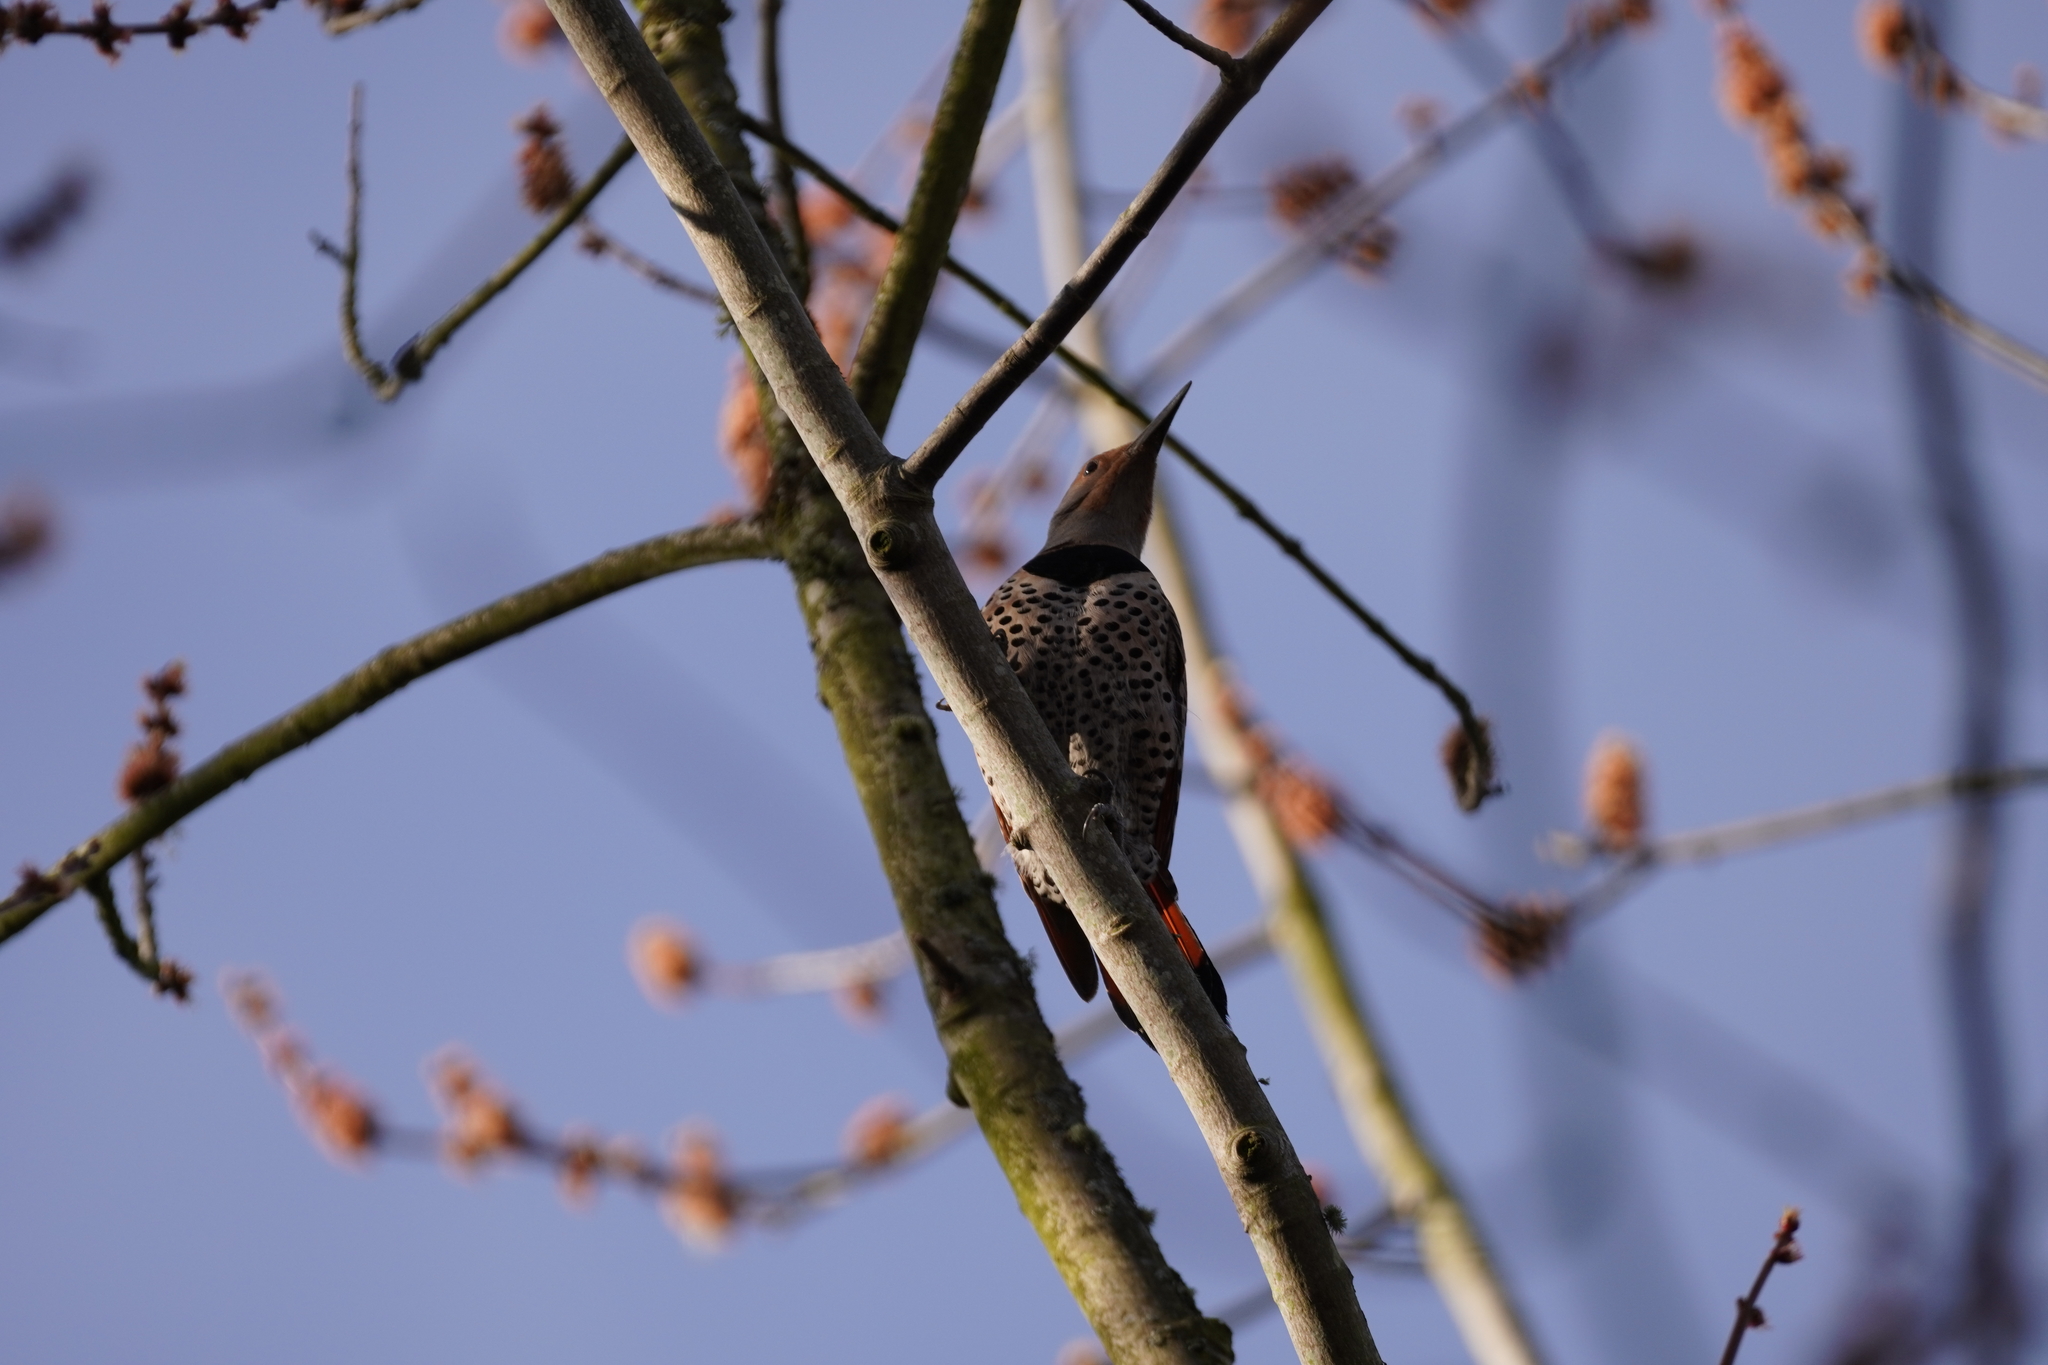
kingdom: Animalia
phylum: Chordata
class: Aves
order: Piciformes
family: Picidae
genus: Colaptes
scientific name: Colaptes auratus
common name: Northern flicker
